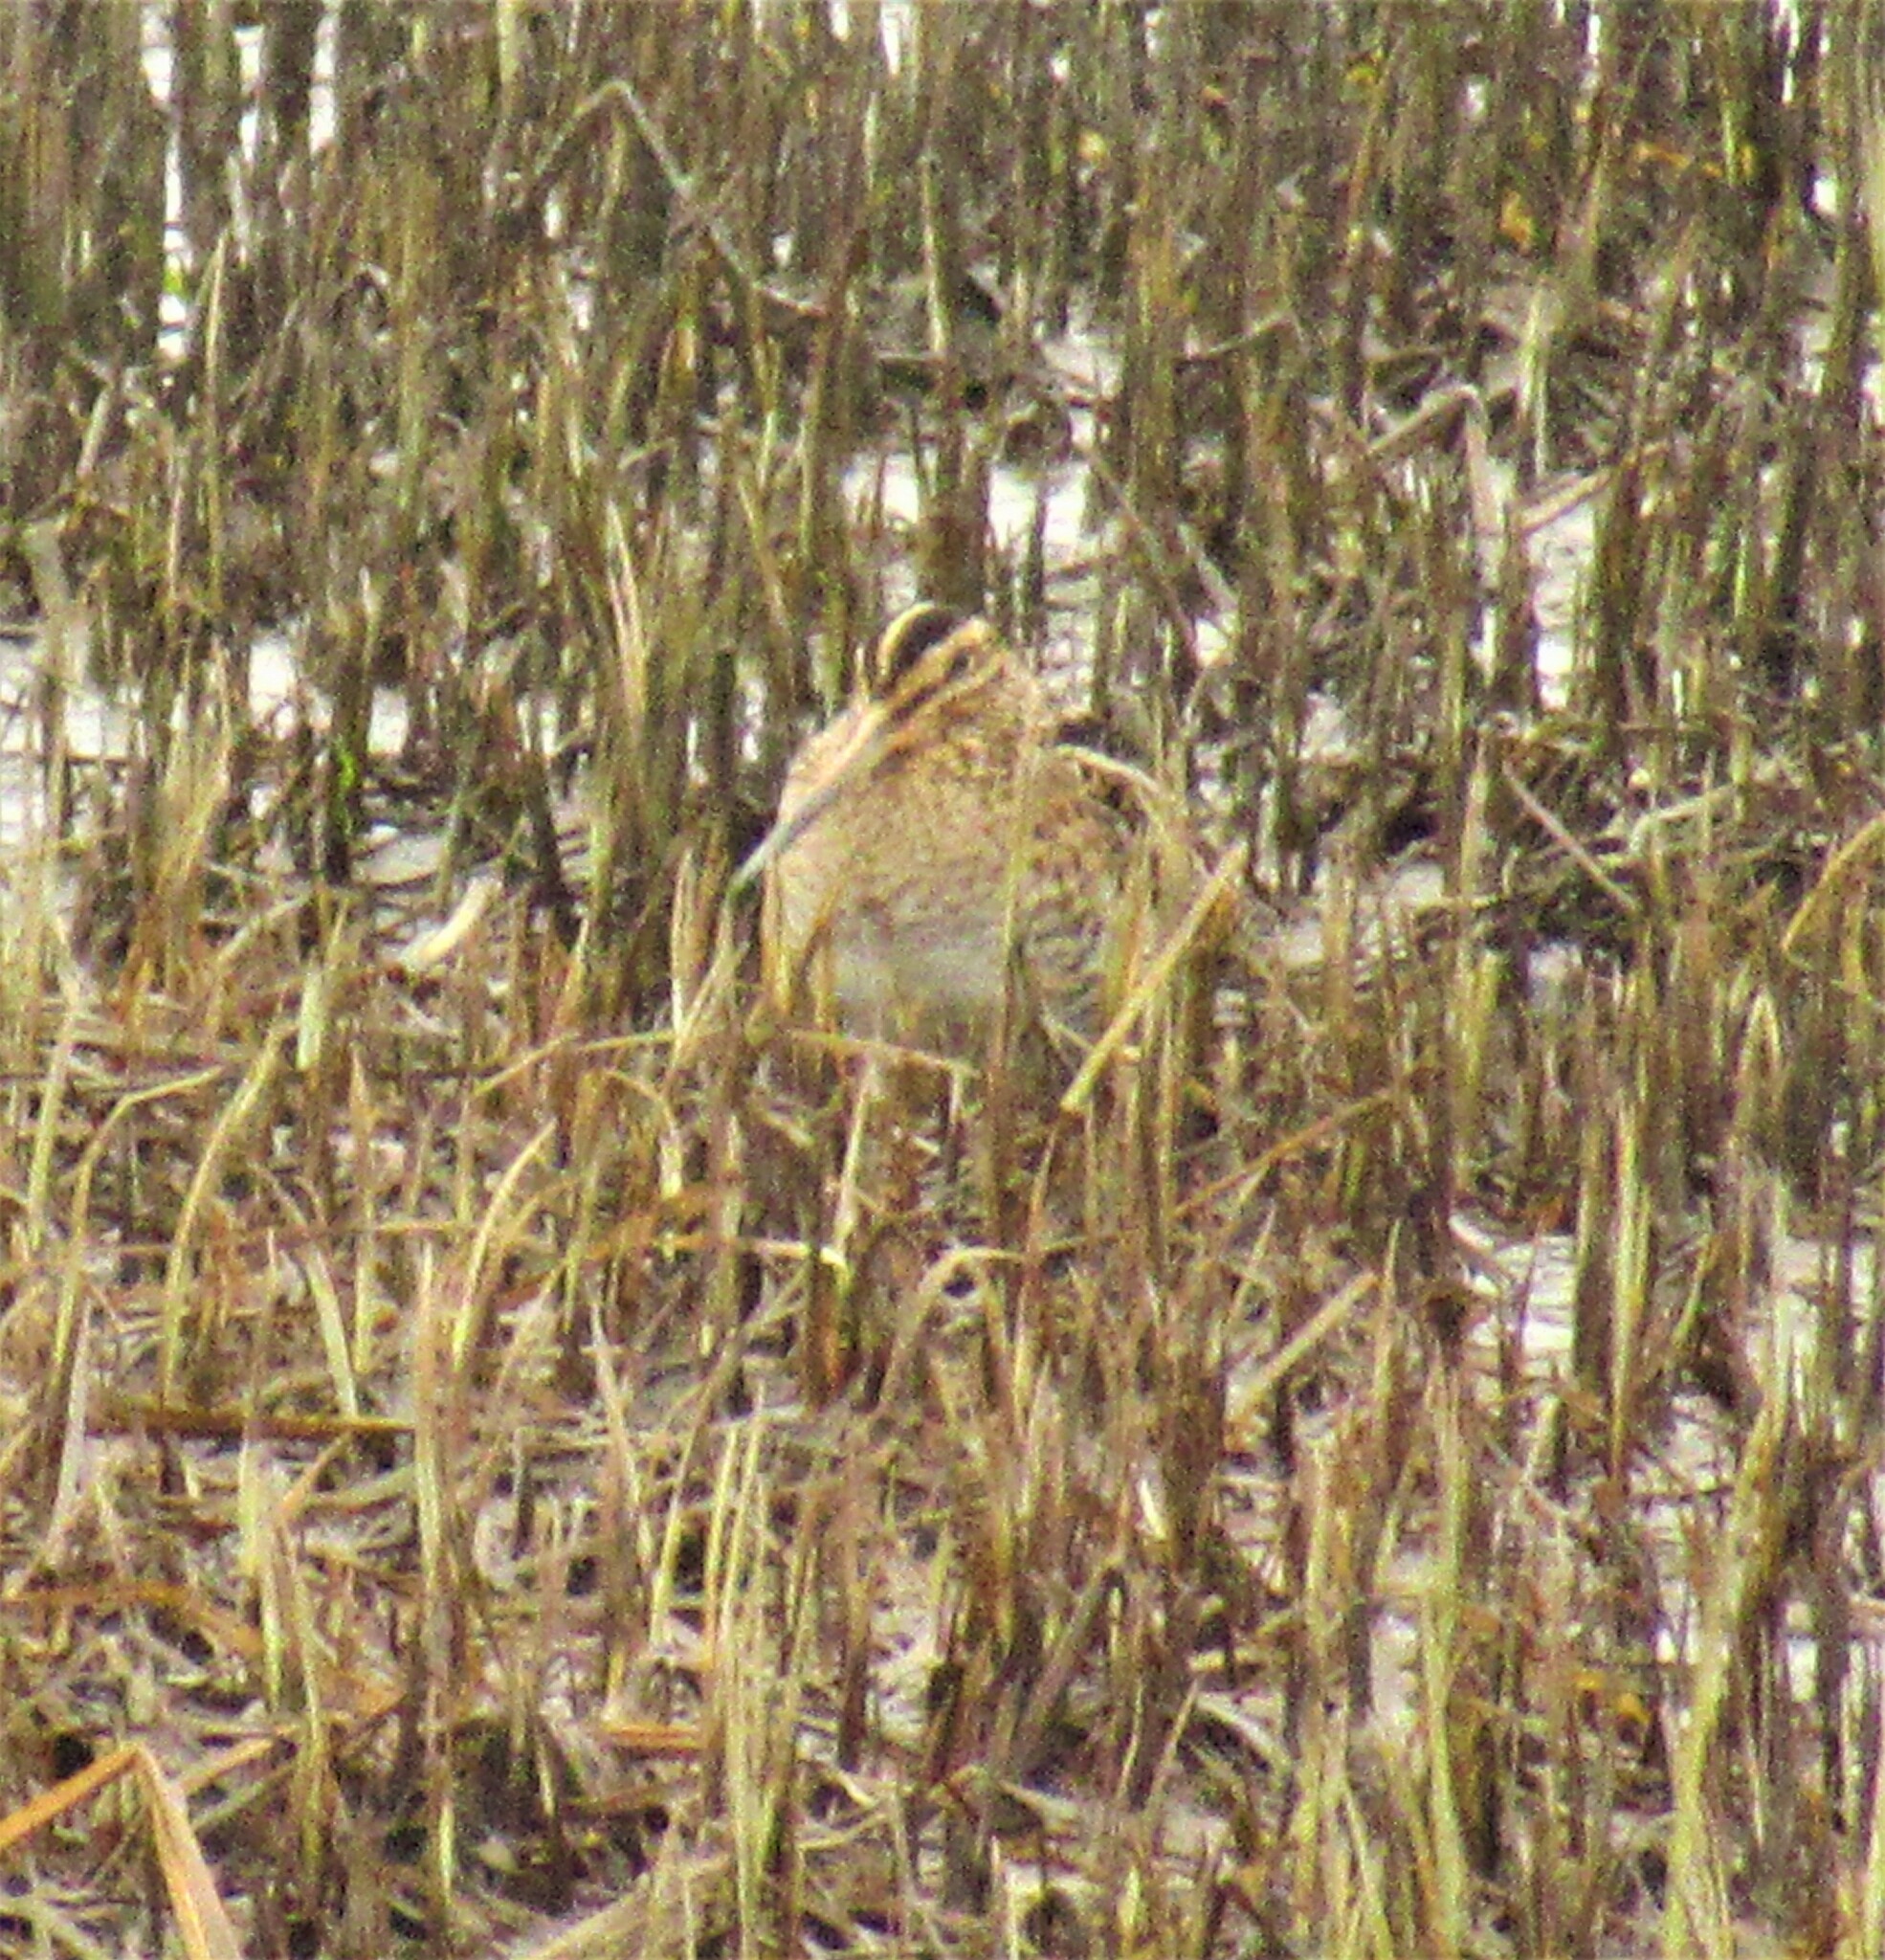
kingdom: Animalia
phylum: Chordata
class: Aves
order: Charadriiformes
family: Scolopacidae
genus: Gallinago
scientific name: Gallinago delicata
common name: Wilson's snipe
